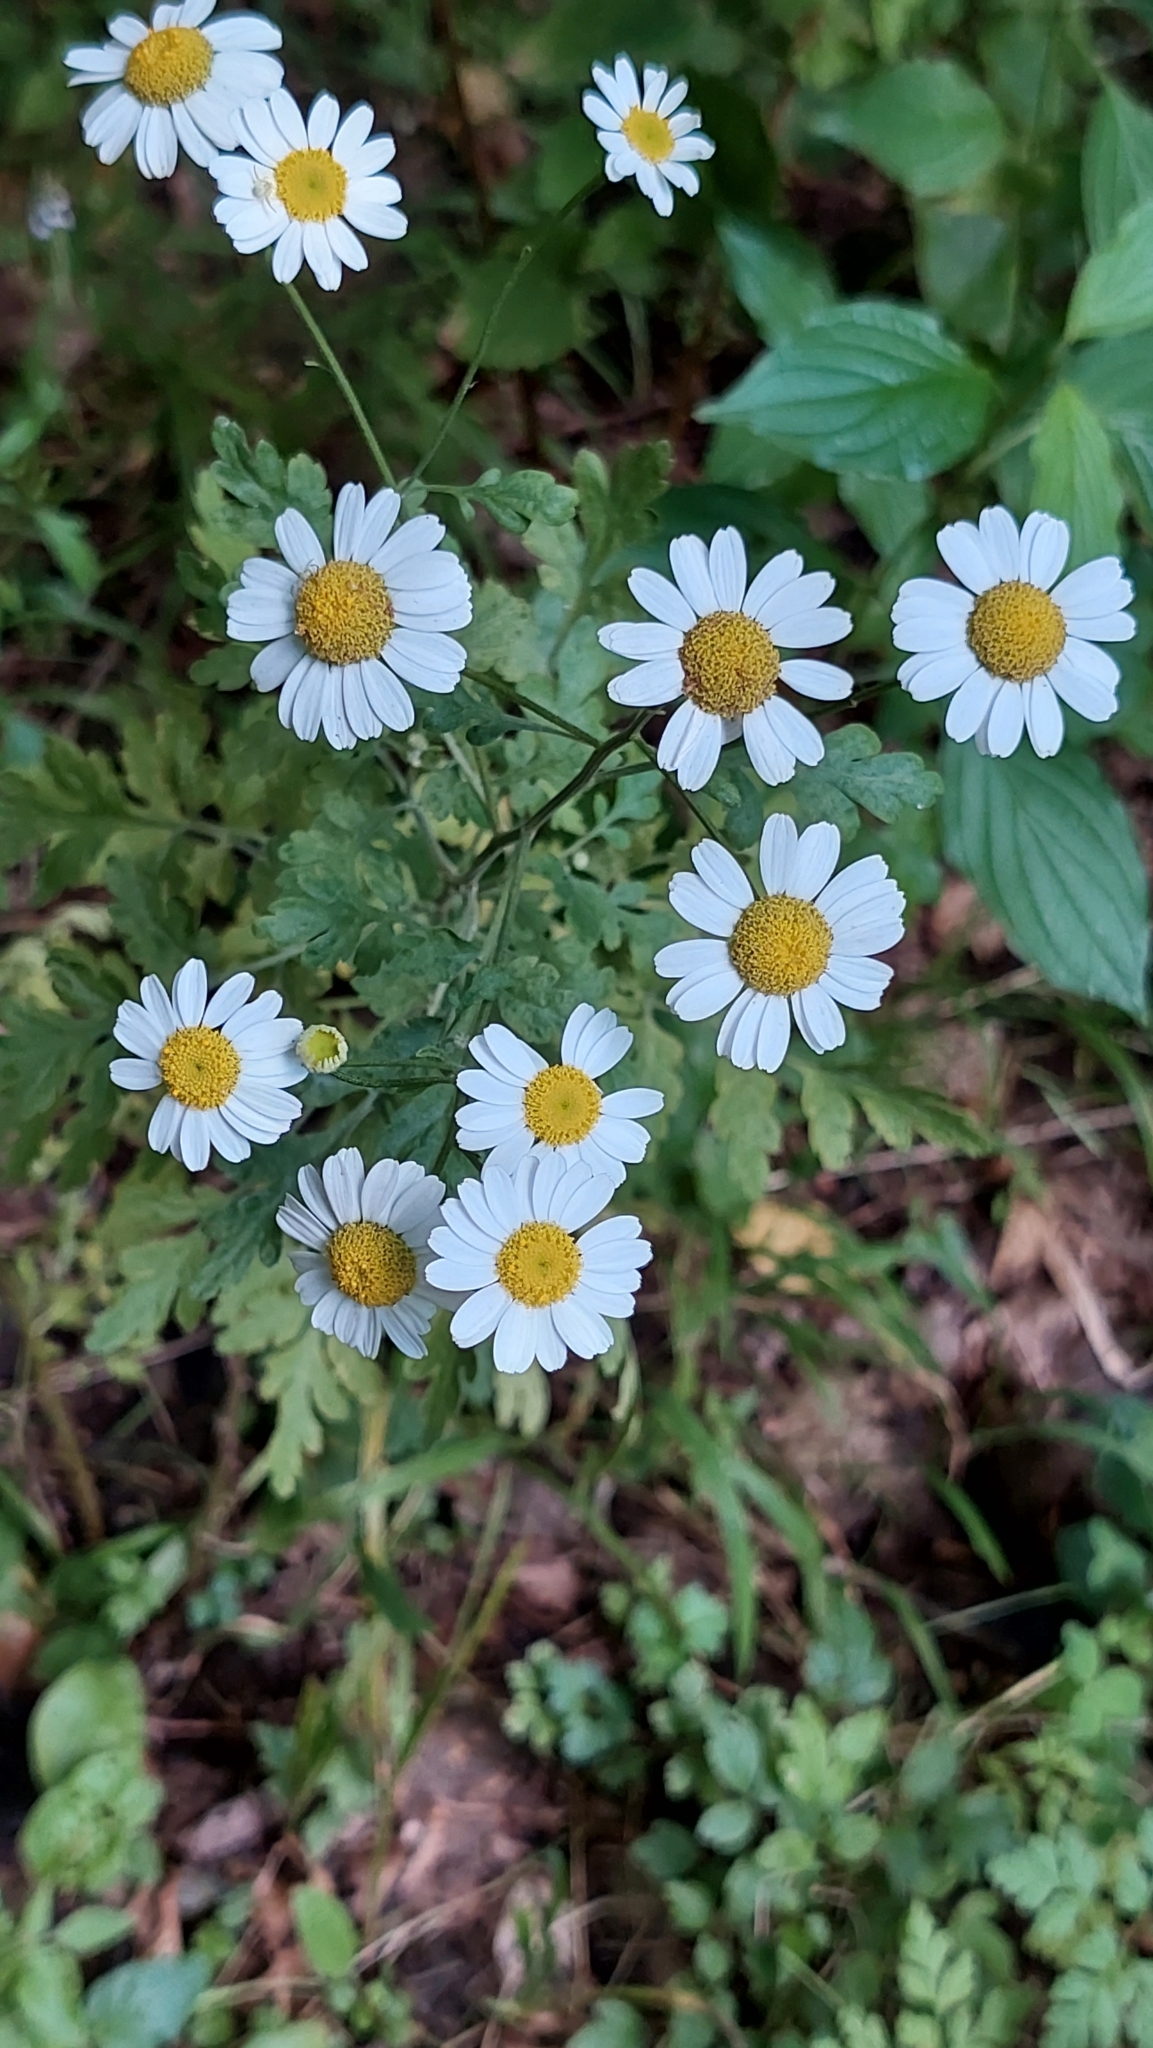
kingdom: Plantae
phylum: Tracheophyta
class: Magnoliopsida
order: Asterales
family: Asteraceae
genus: Tanacetum
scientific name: Tanacetum partheniifolium
